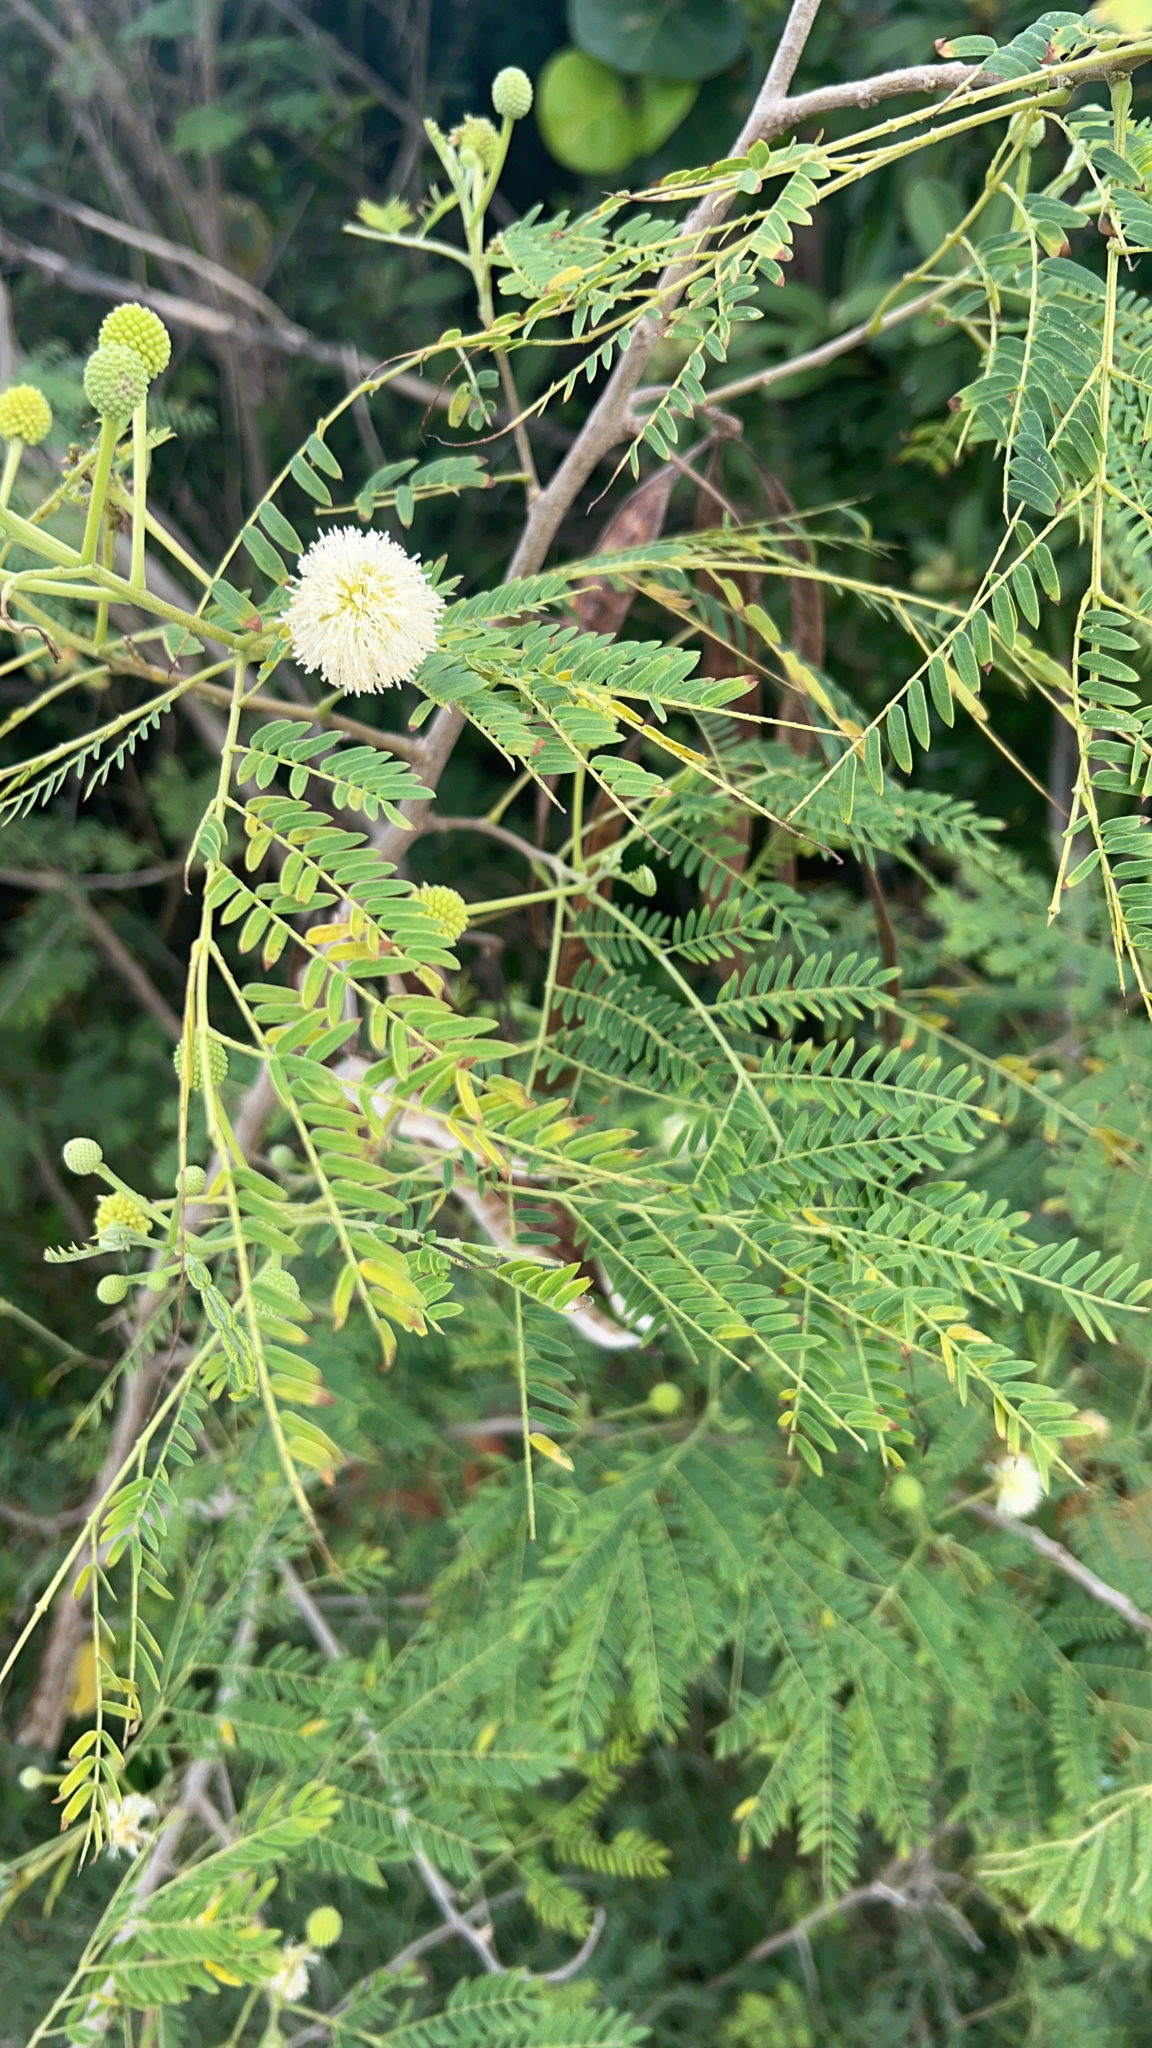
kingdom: Plantae
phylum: Tracheophyta
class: Magnoliopsida
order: Fabales
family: Fabaceae
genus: Leucaena
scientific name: Leucaena leucocephala
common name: White leadtree
